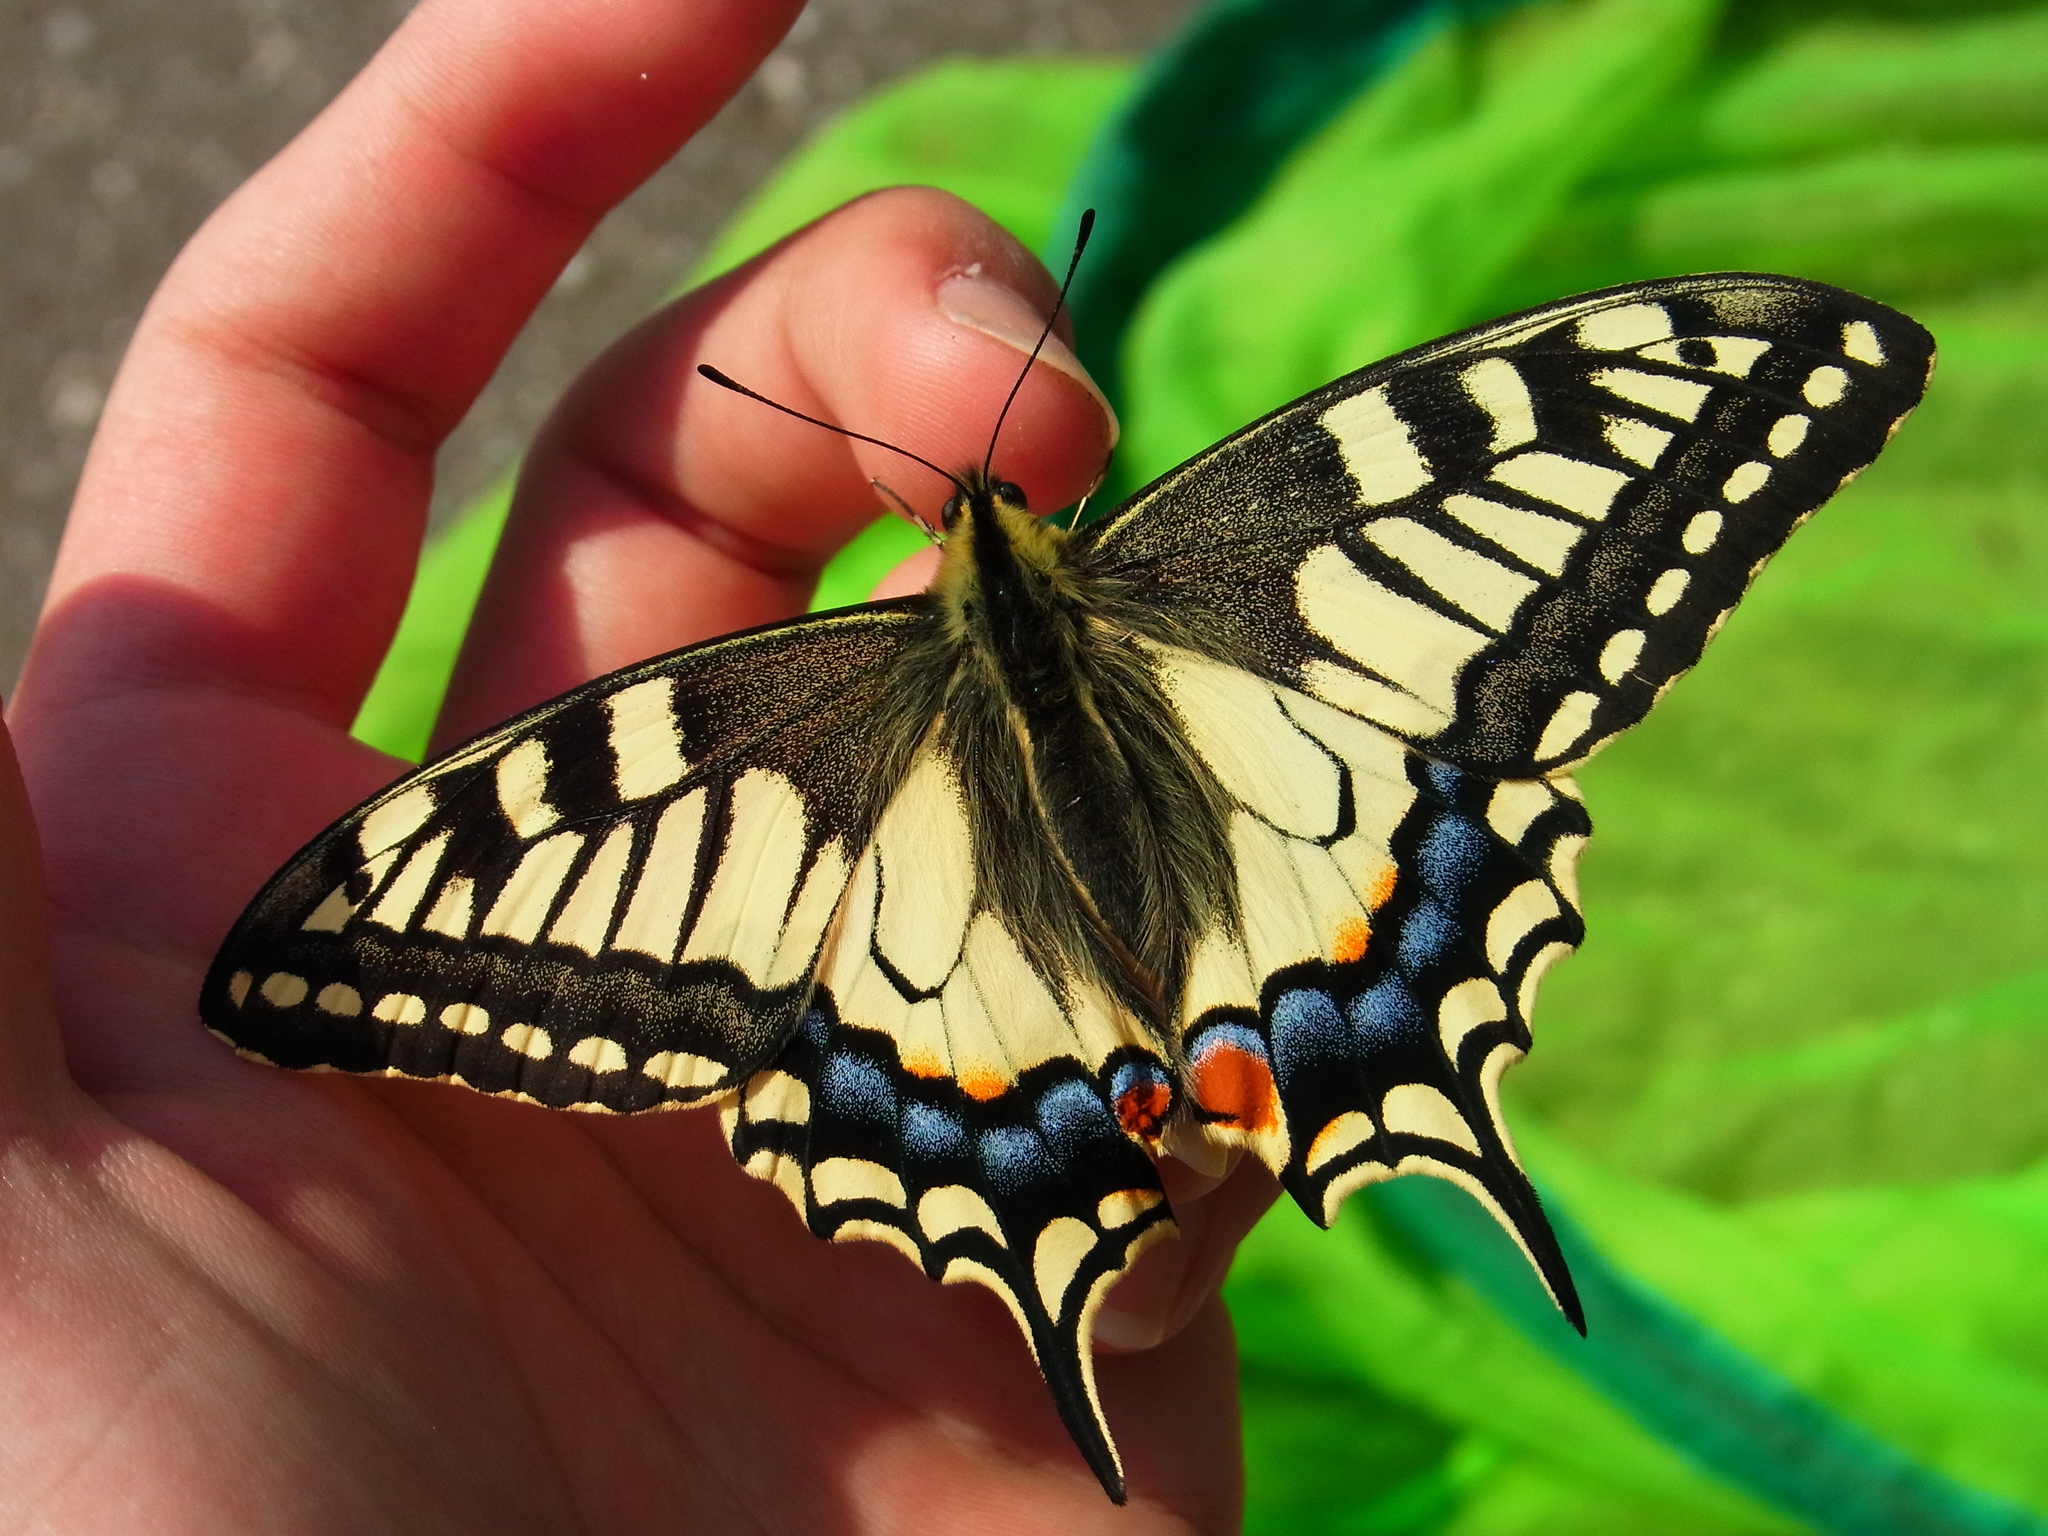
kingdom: Animalia
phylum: Arthropoda
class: Insecta
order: Lepidoptera
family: Papilionidae
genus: Papilio
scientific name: Papilio machaon
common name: Swallowtail
